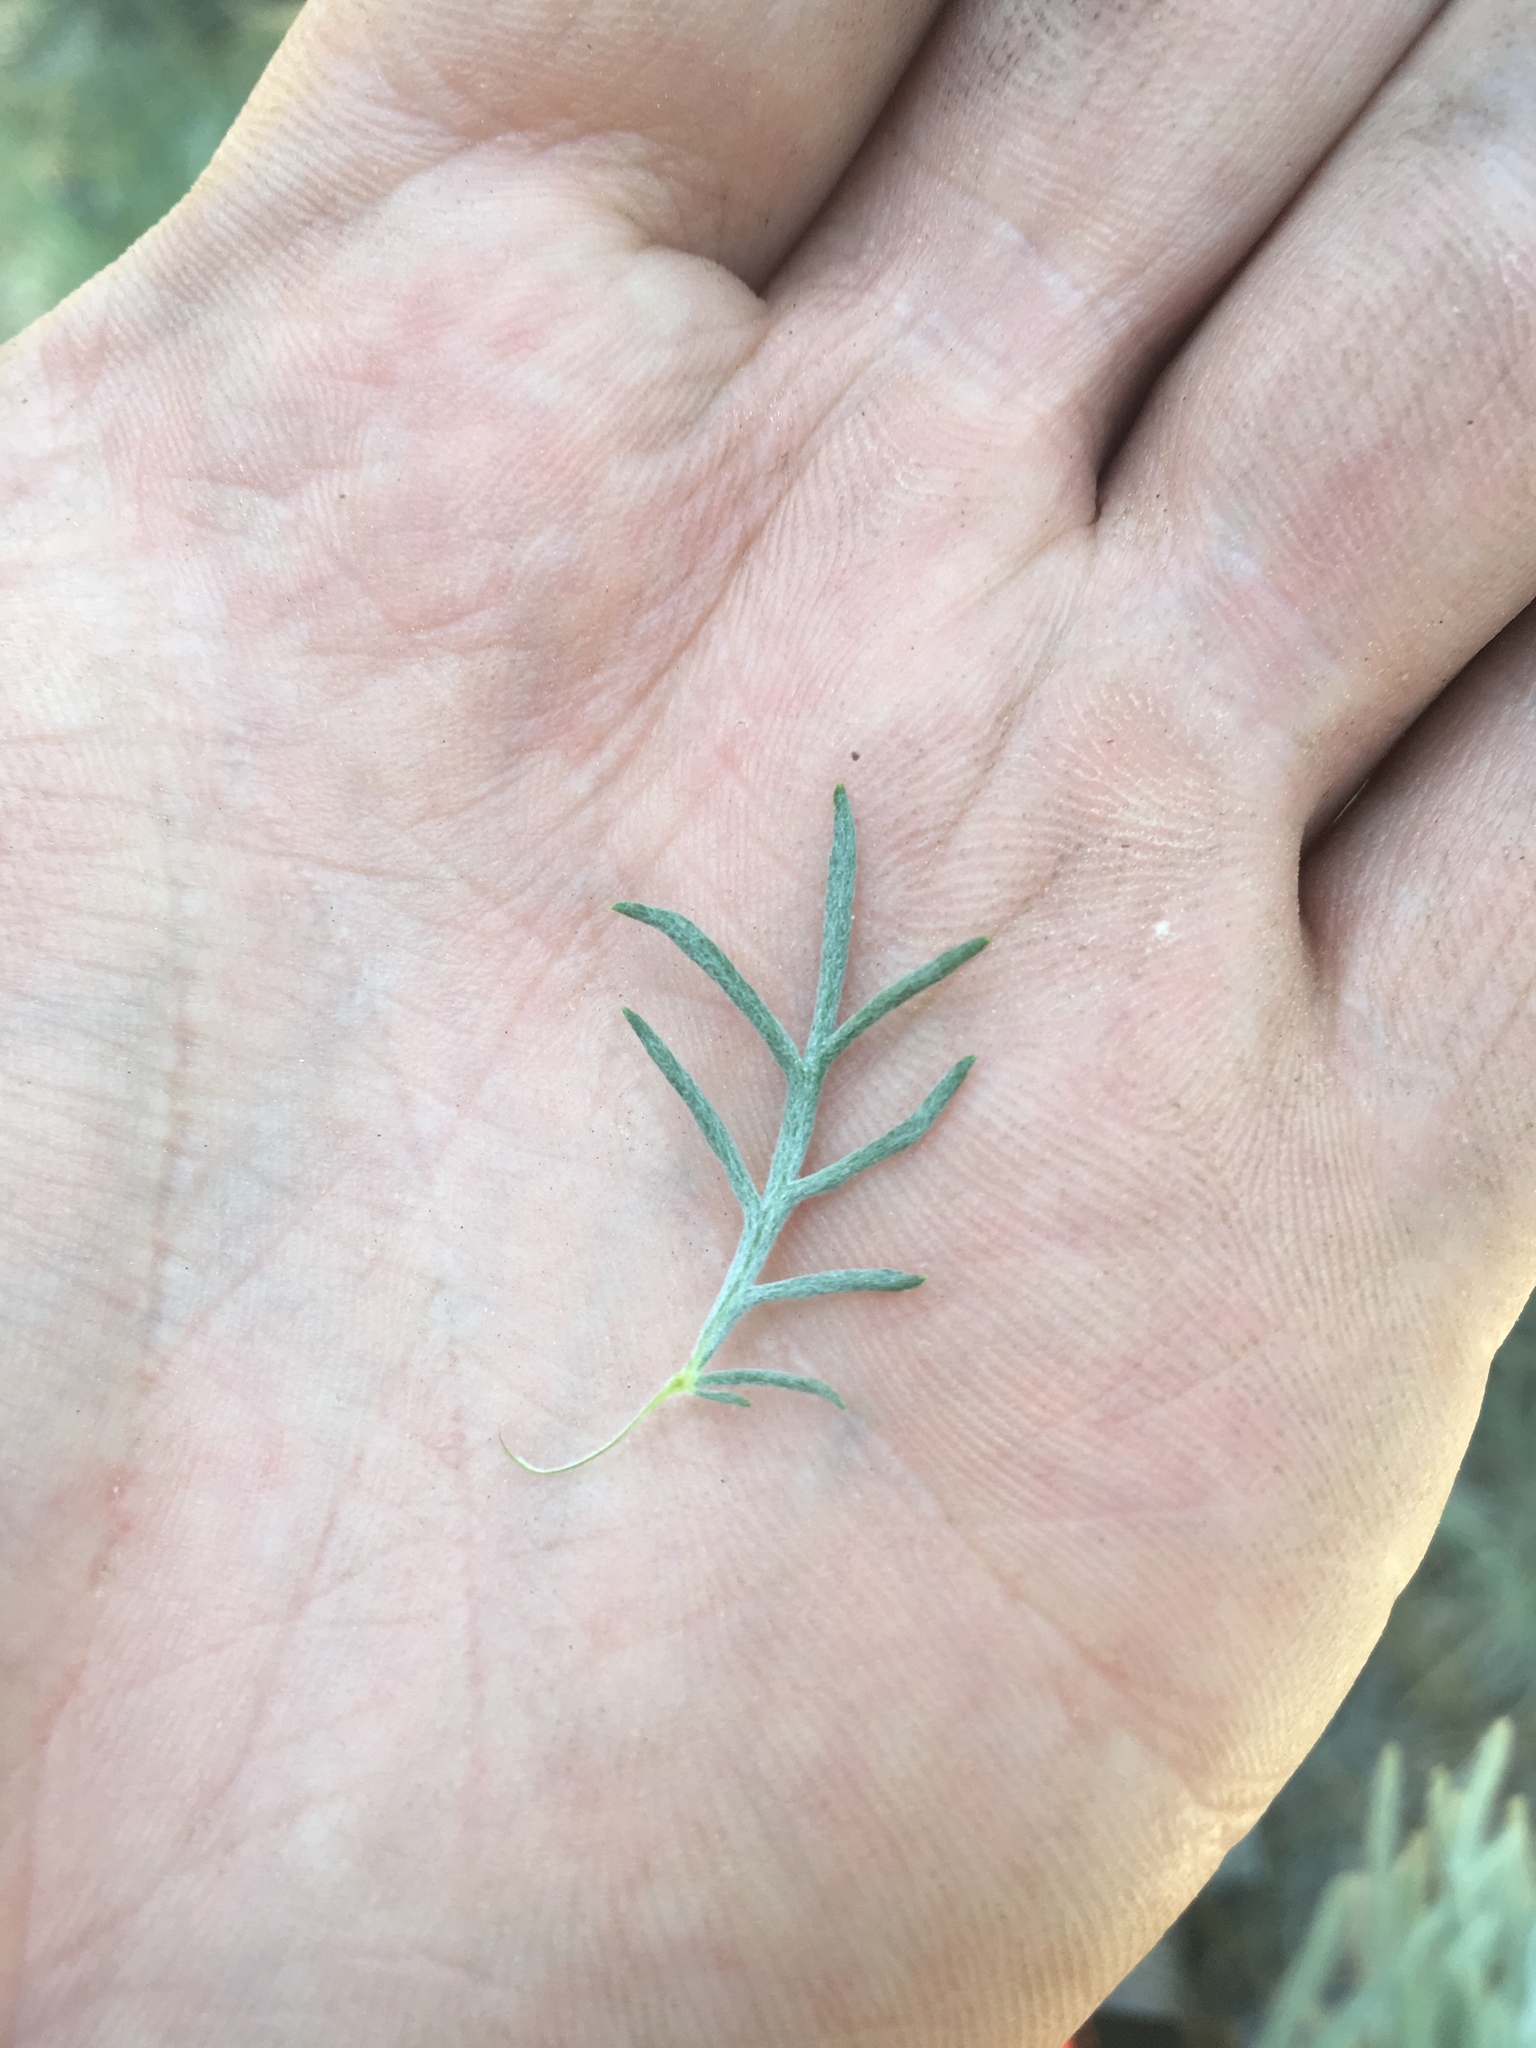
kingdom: Plantae
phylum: Tracheophyta
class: Magnoliopsida
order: Asterales
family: Asteraceae
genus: Artemisia
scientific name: Artemisia carruthii
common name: Carruth wormwood
